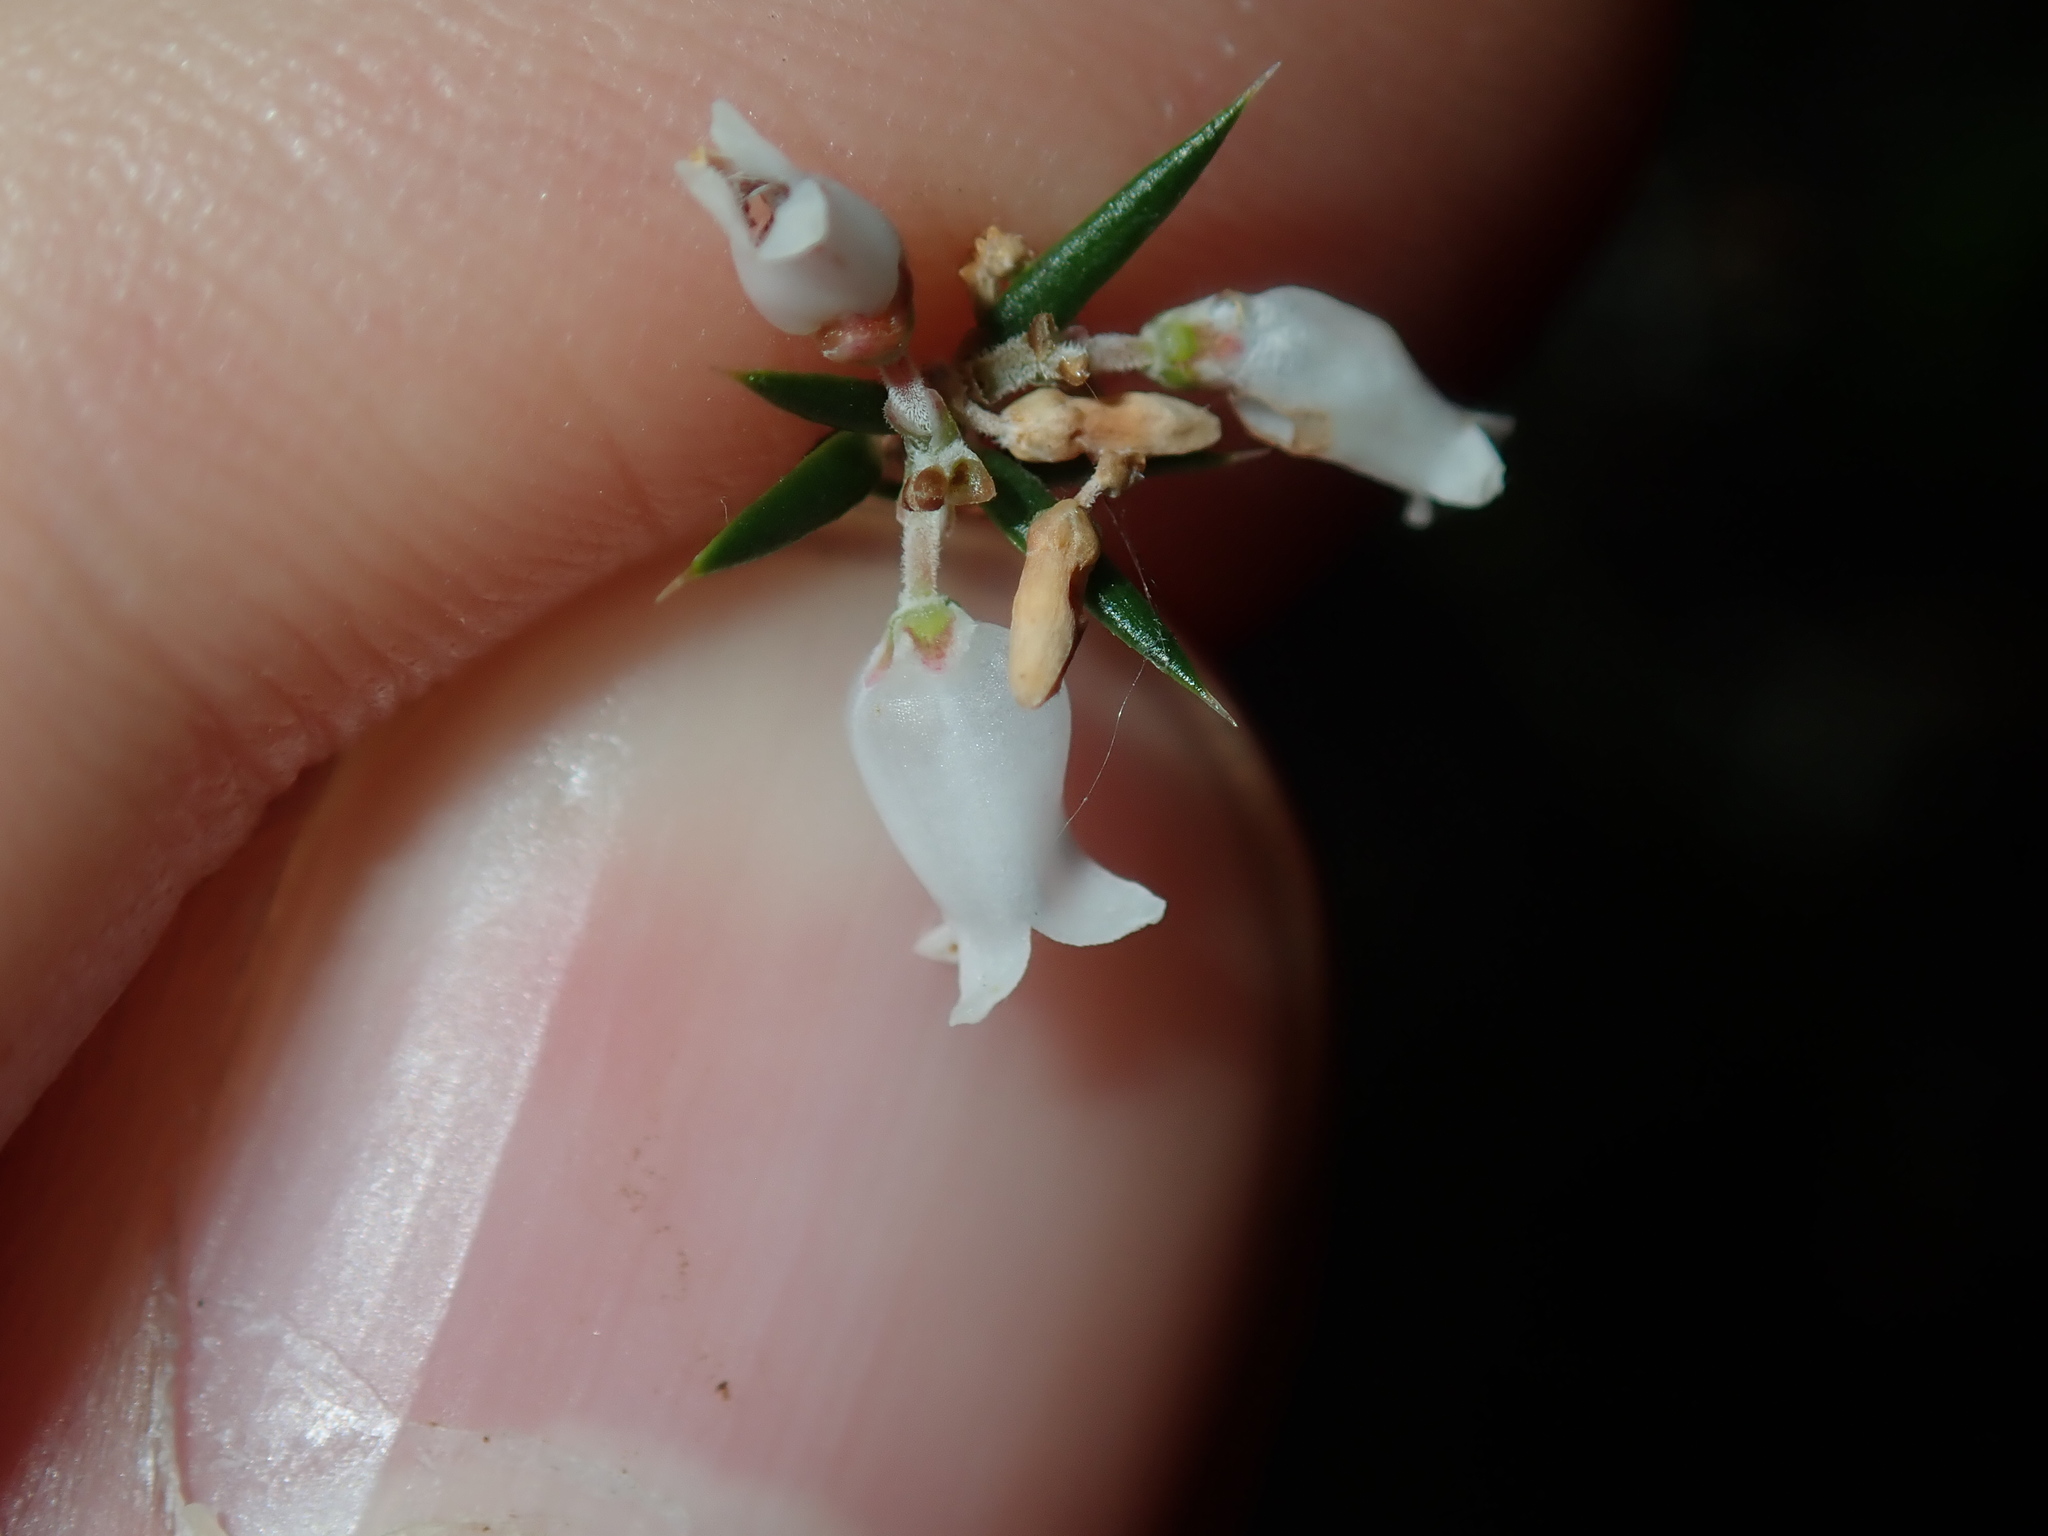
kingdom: Plantae
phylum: Tracheophyta
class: Magnoliopsida
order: Ericales
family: Ericaceae
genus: Lissanthe
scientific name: Lissanthe strigosa
